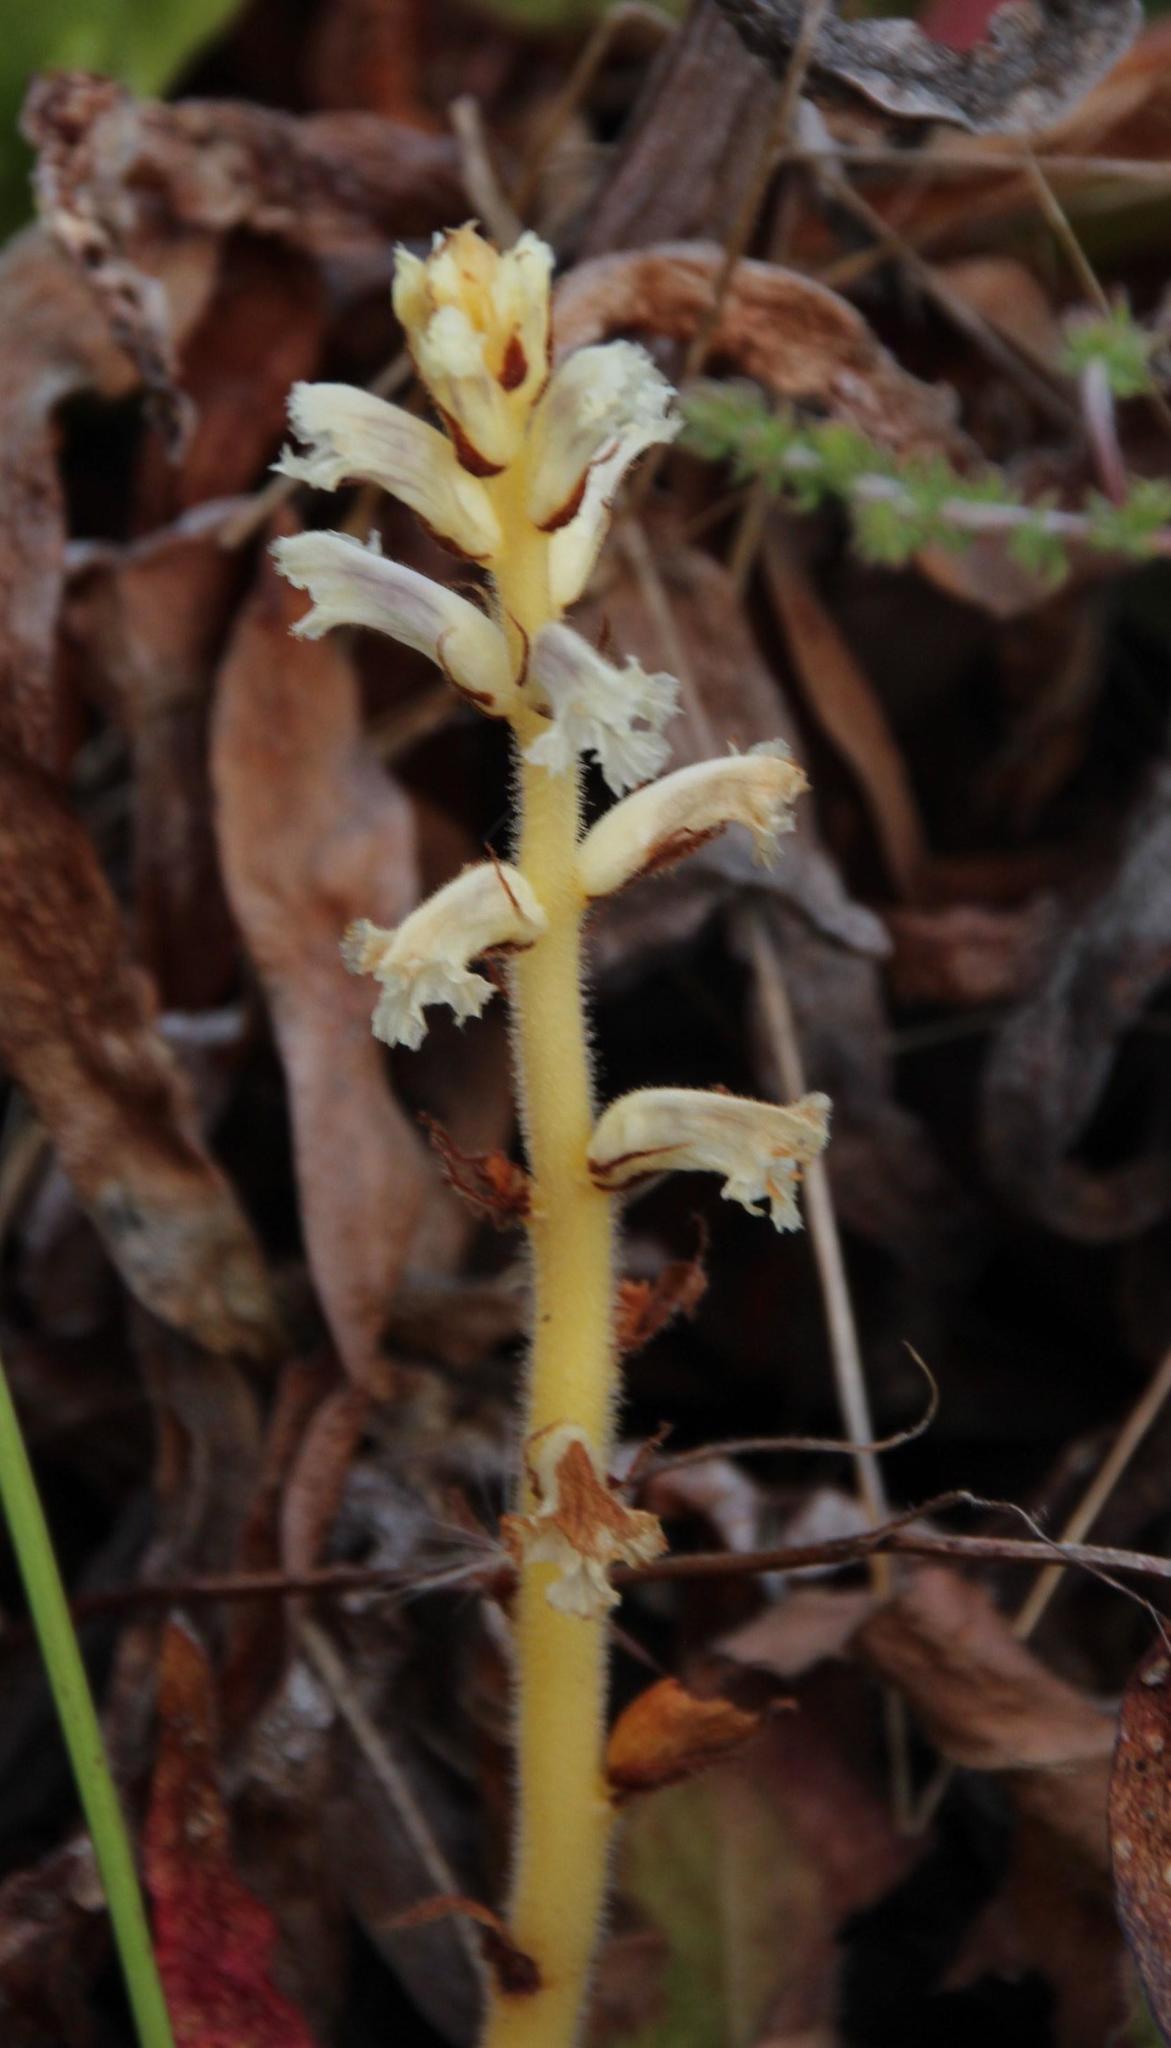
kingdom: Plantae
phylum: Tracheophyta
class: Magnoliopsida
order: Lamiales
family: Orobanchaceae
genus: Orobanche
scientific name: Orobanche minor
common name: Common broomrape
